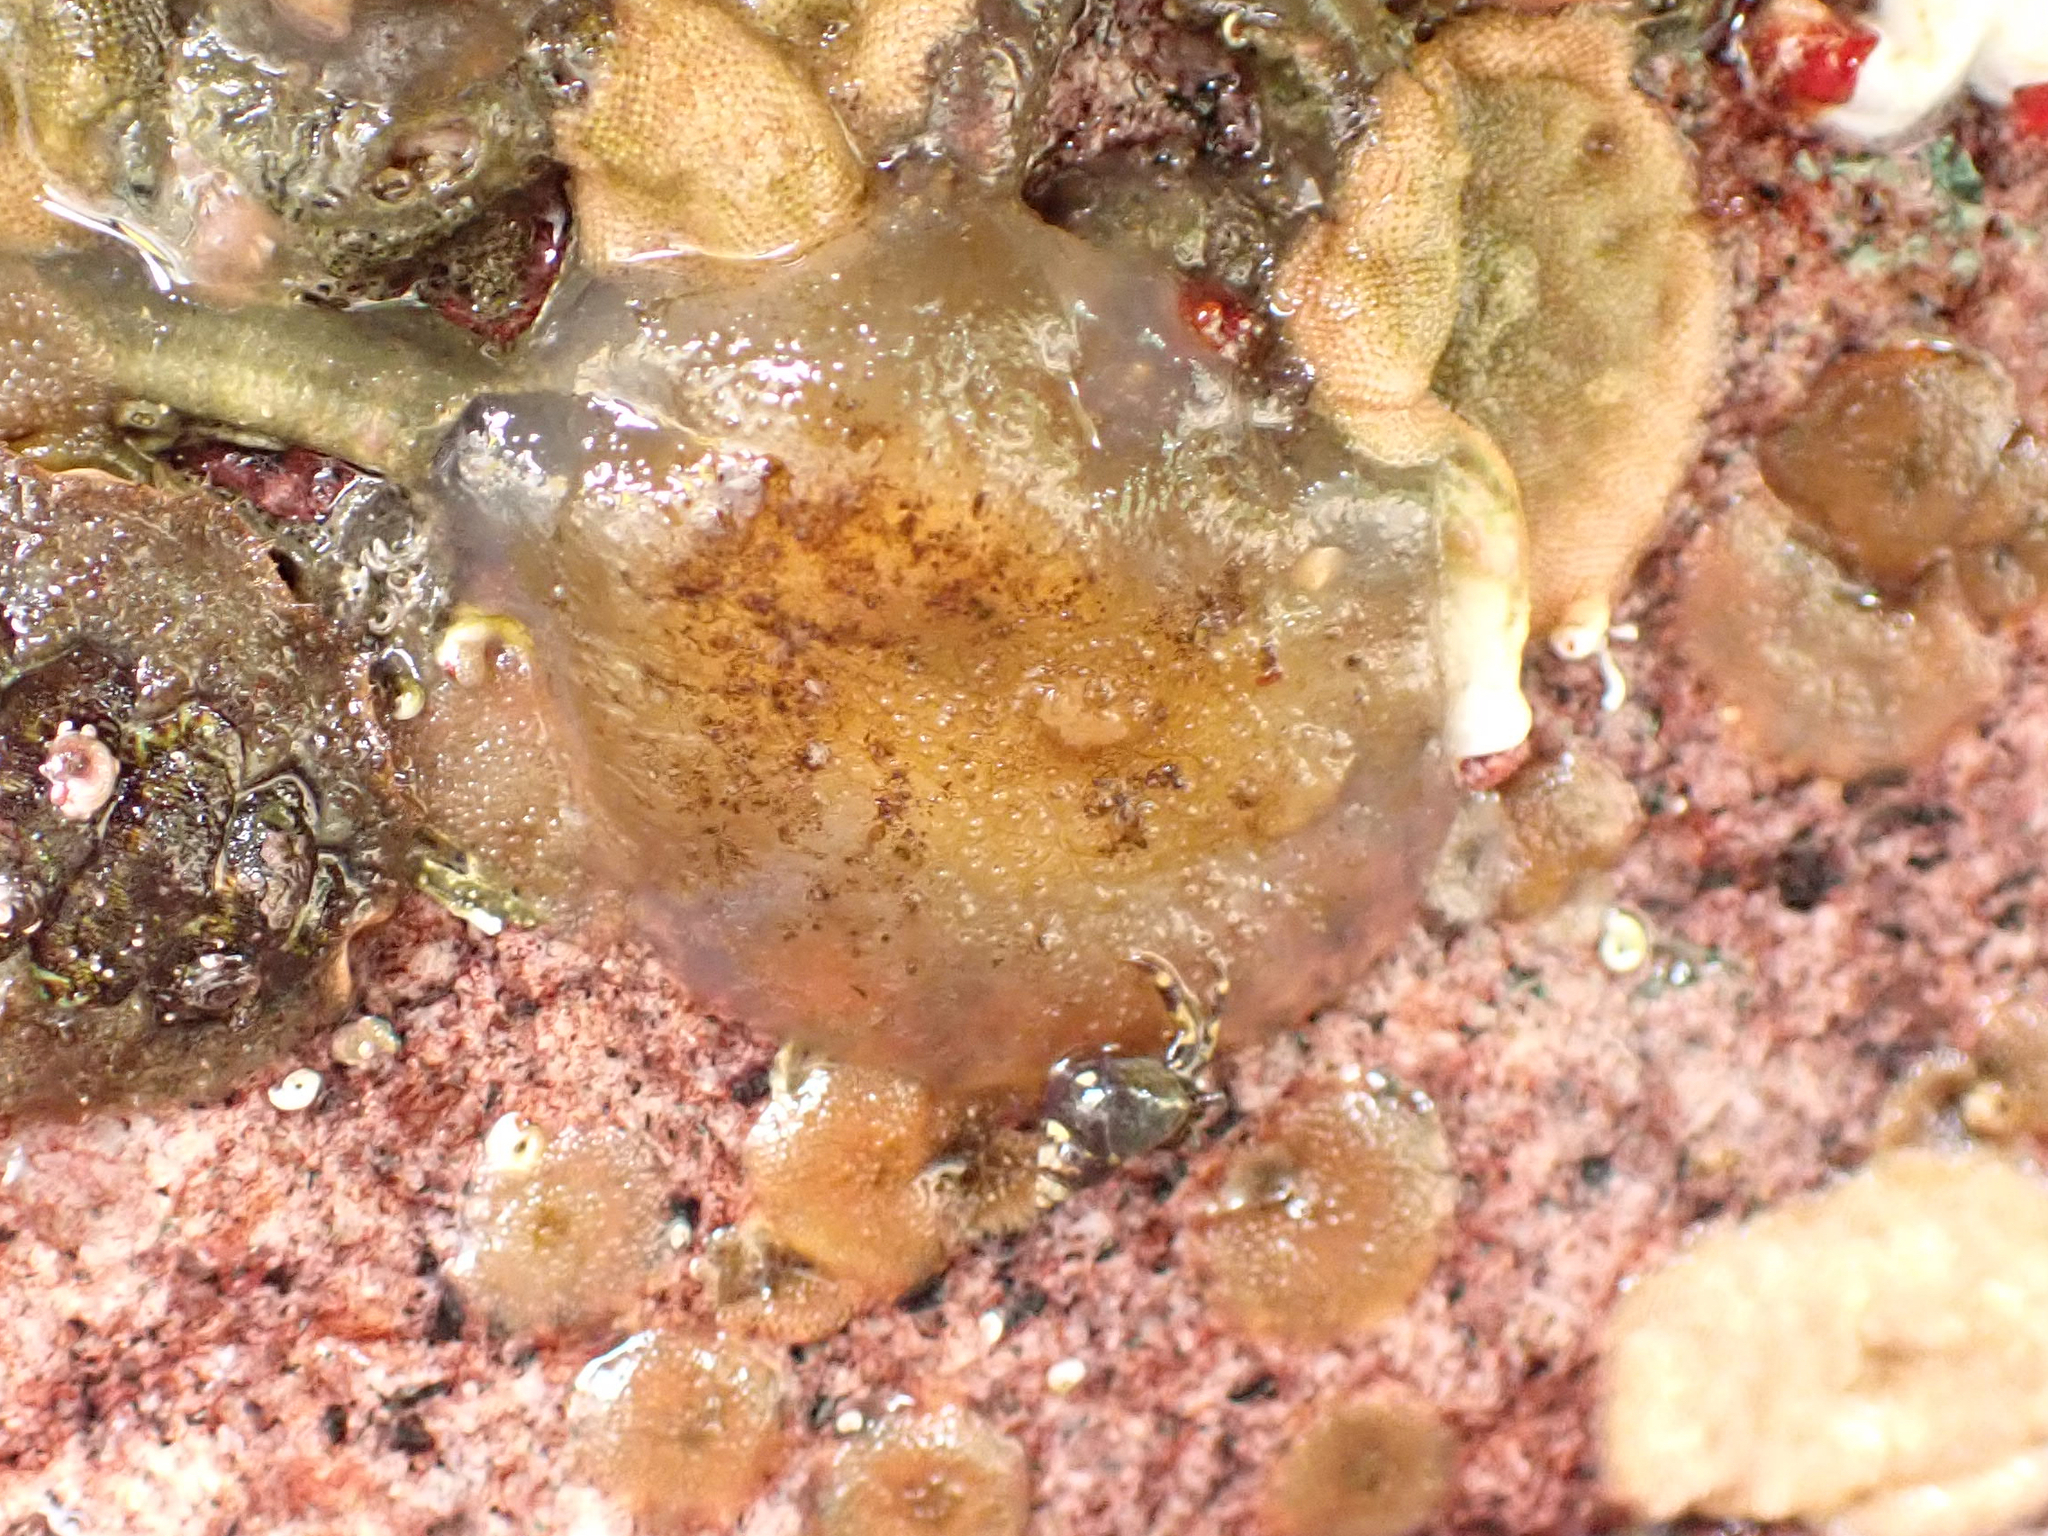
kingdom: Animalia
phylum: Chordata
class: Ascidiacea
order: Phlebobranchia
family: Ascidiidae
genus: Ascidia
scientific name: Ascidia columbiana
